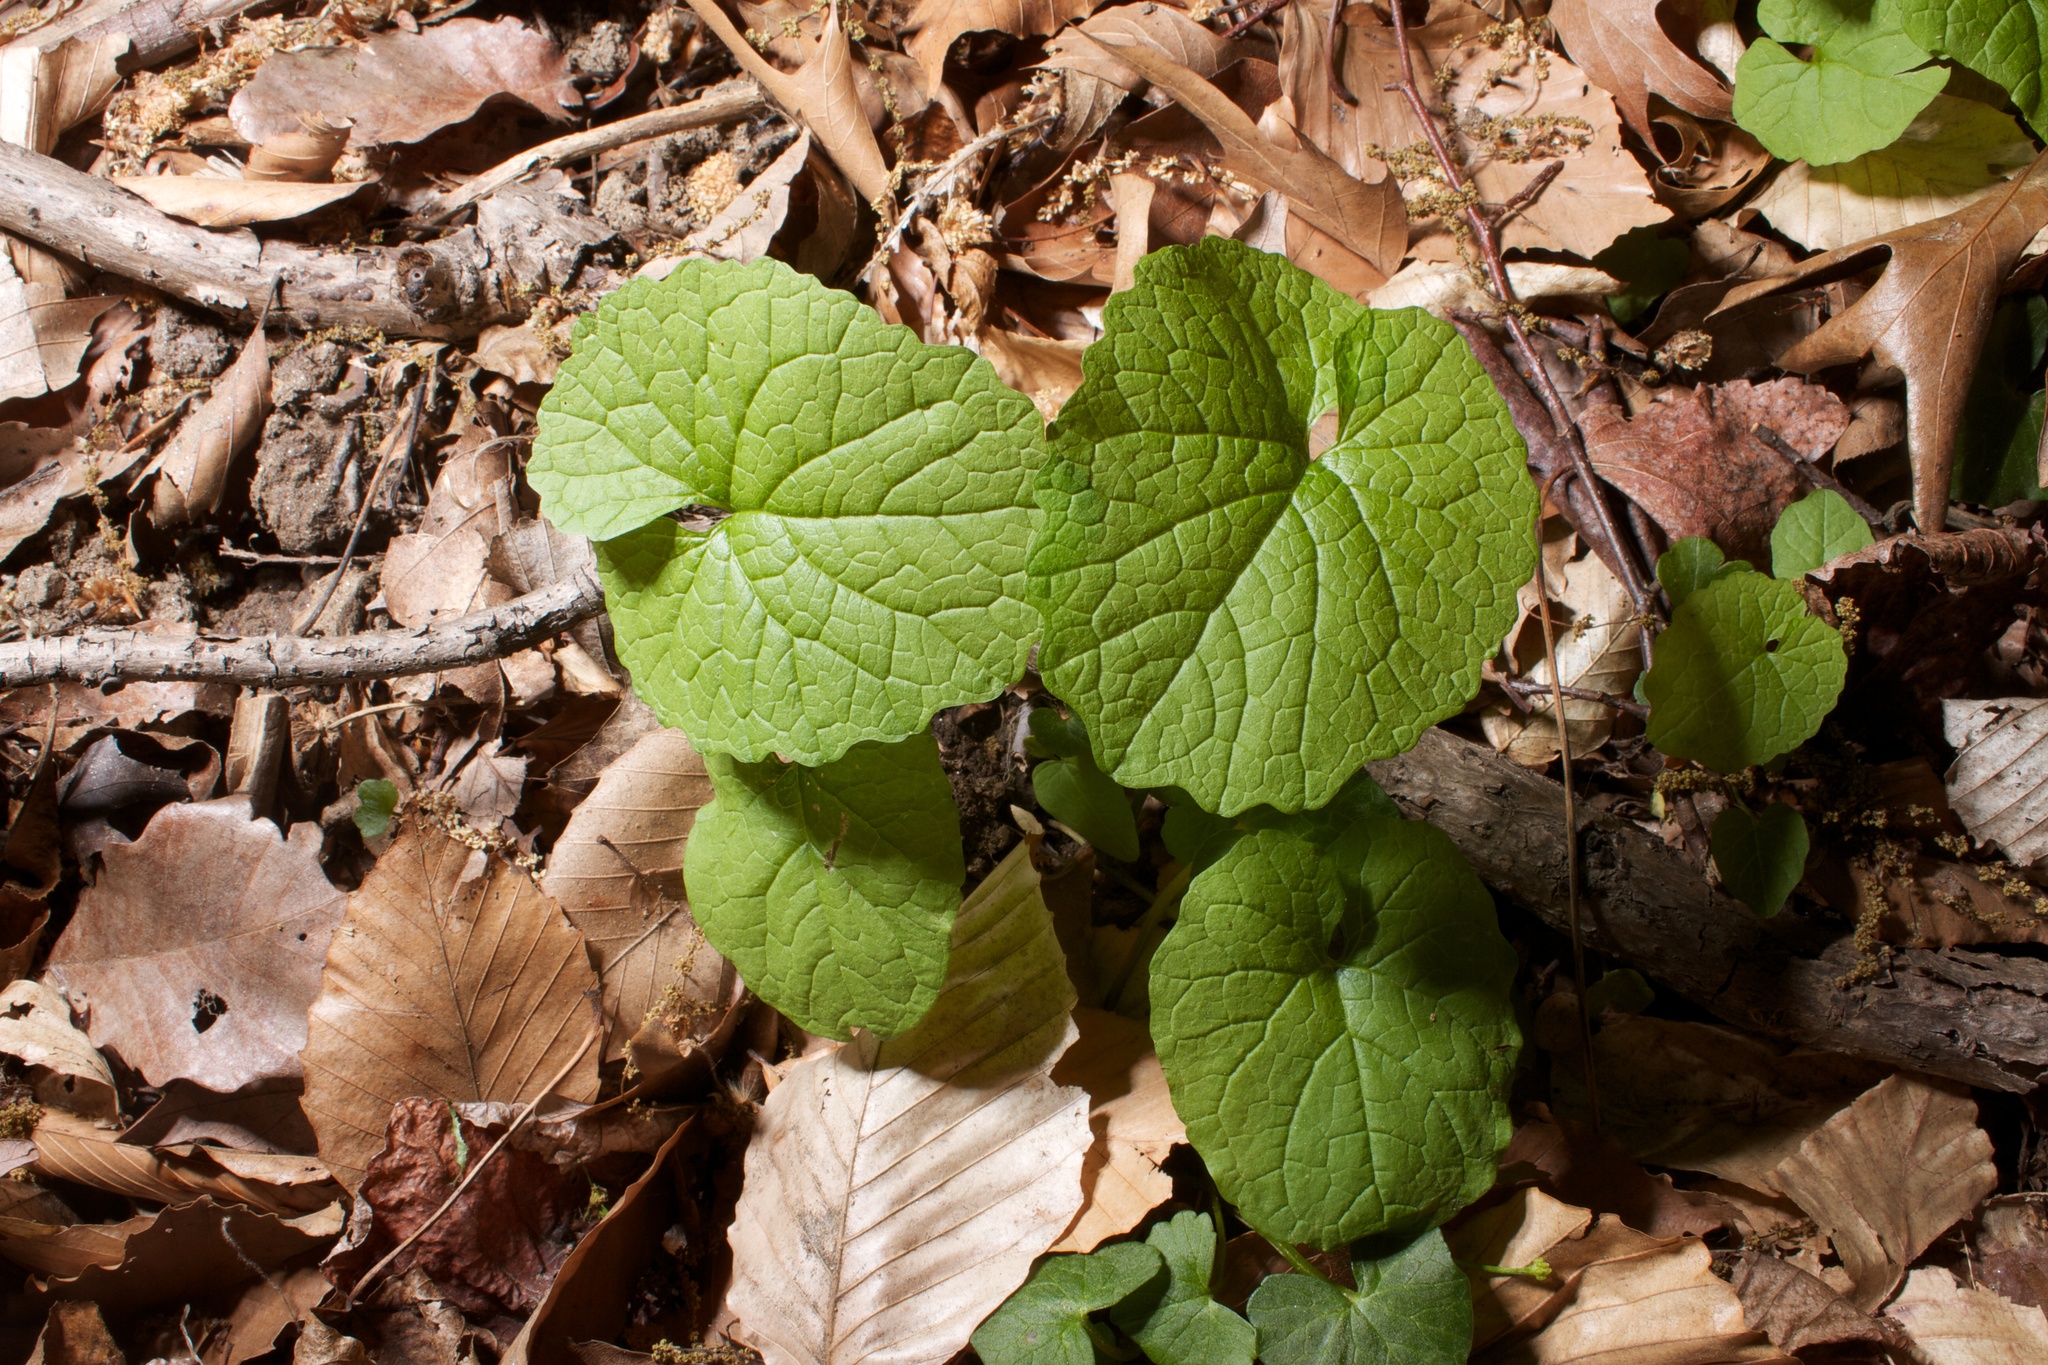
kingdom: Plantae
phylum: Tracheophyta
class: Magnoliopsida
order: Brassicales
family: Brassicaceae
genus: Alliaria
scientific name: Alliaria petiolata
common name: Garlic mustard
